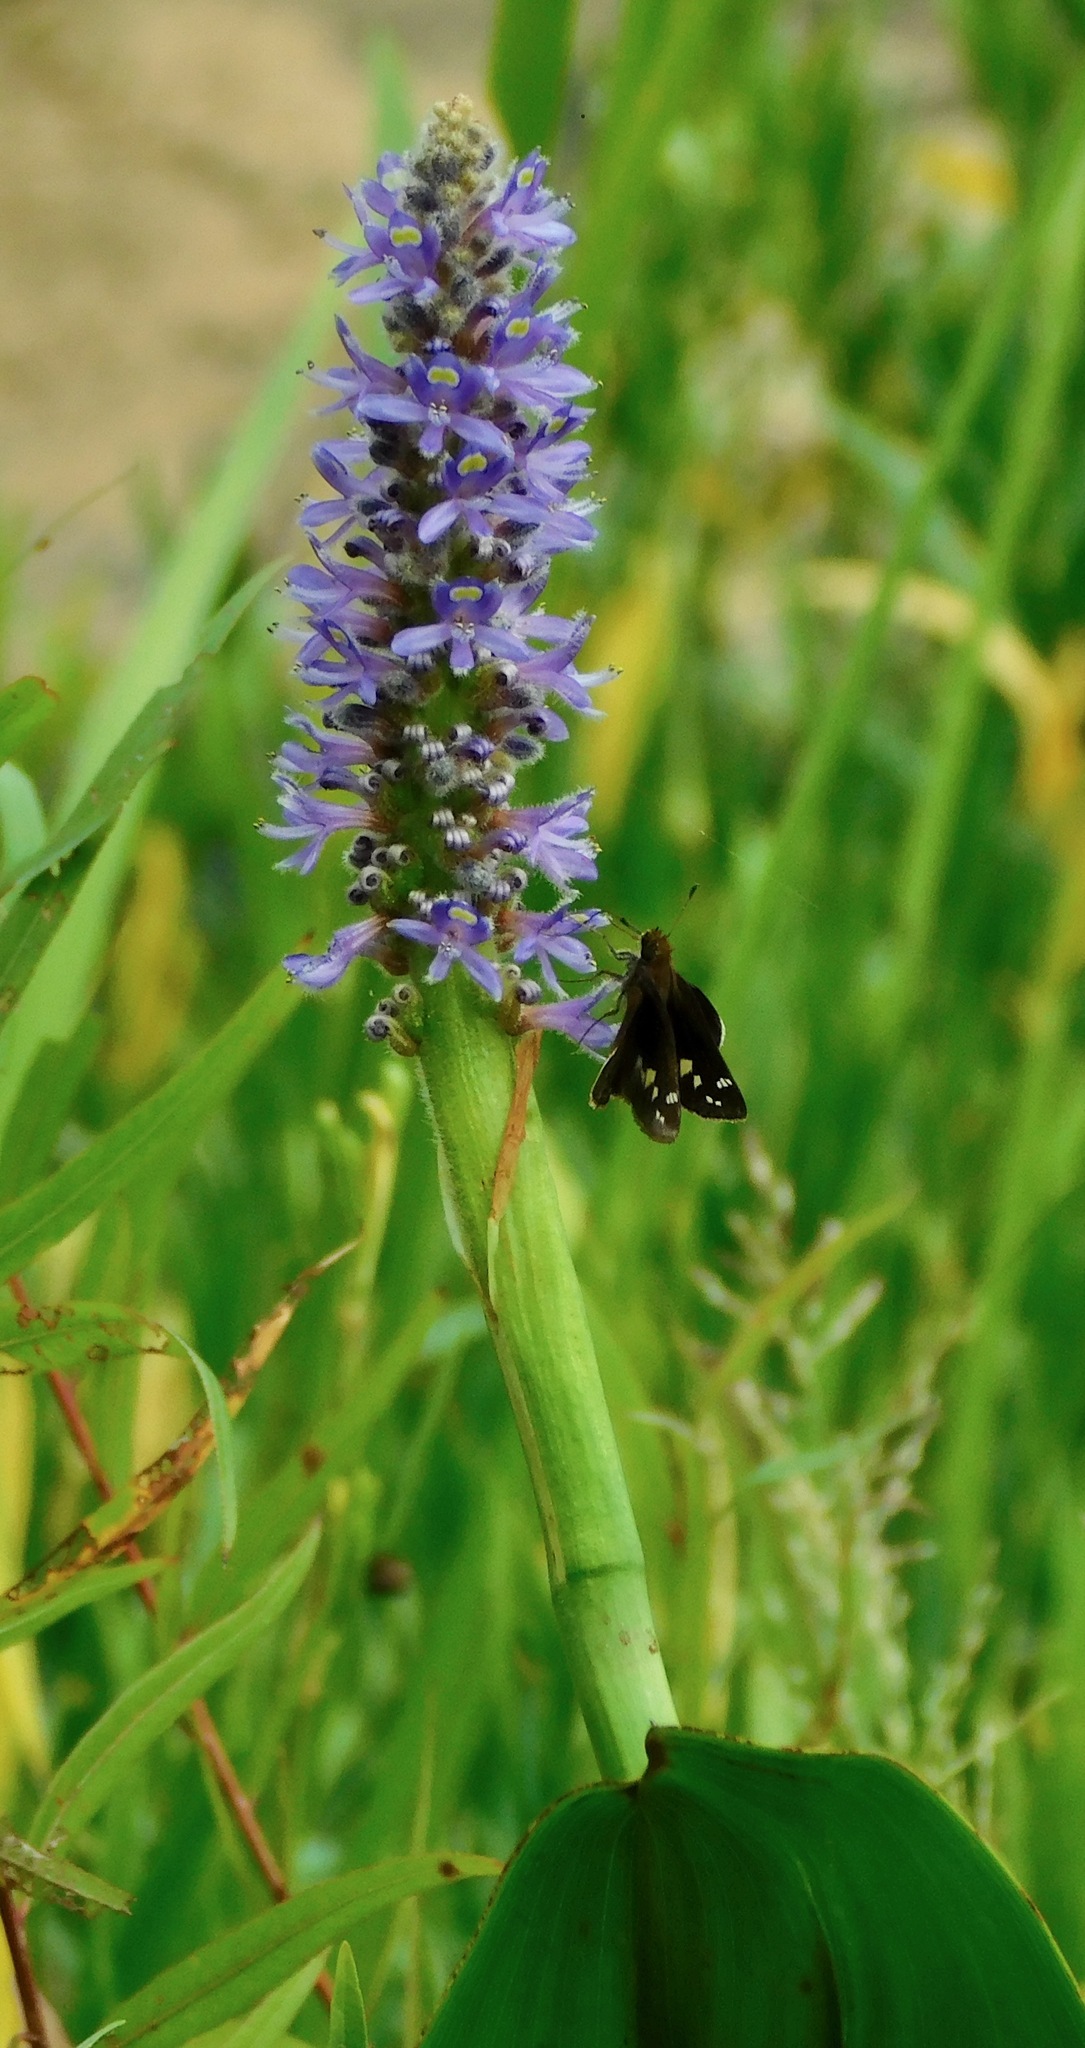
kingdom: Animalia
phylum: Arthropoda
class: Insecta
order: Lepidoptera
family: Hesperiidae
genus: Lon
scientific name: Lon zabulon
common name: Zabulon skipper
